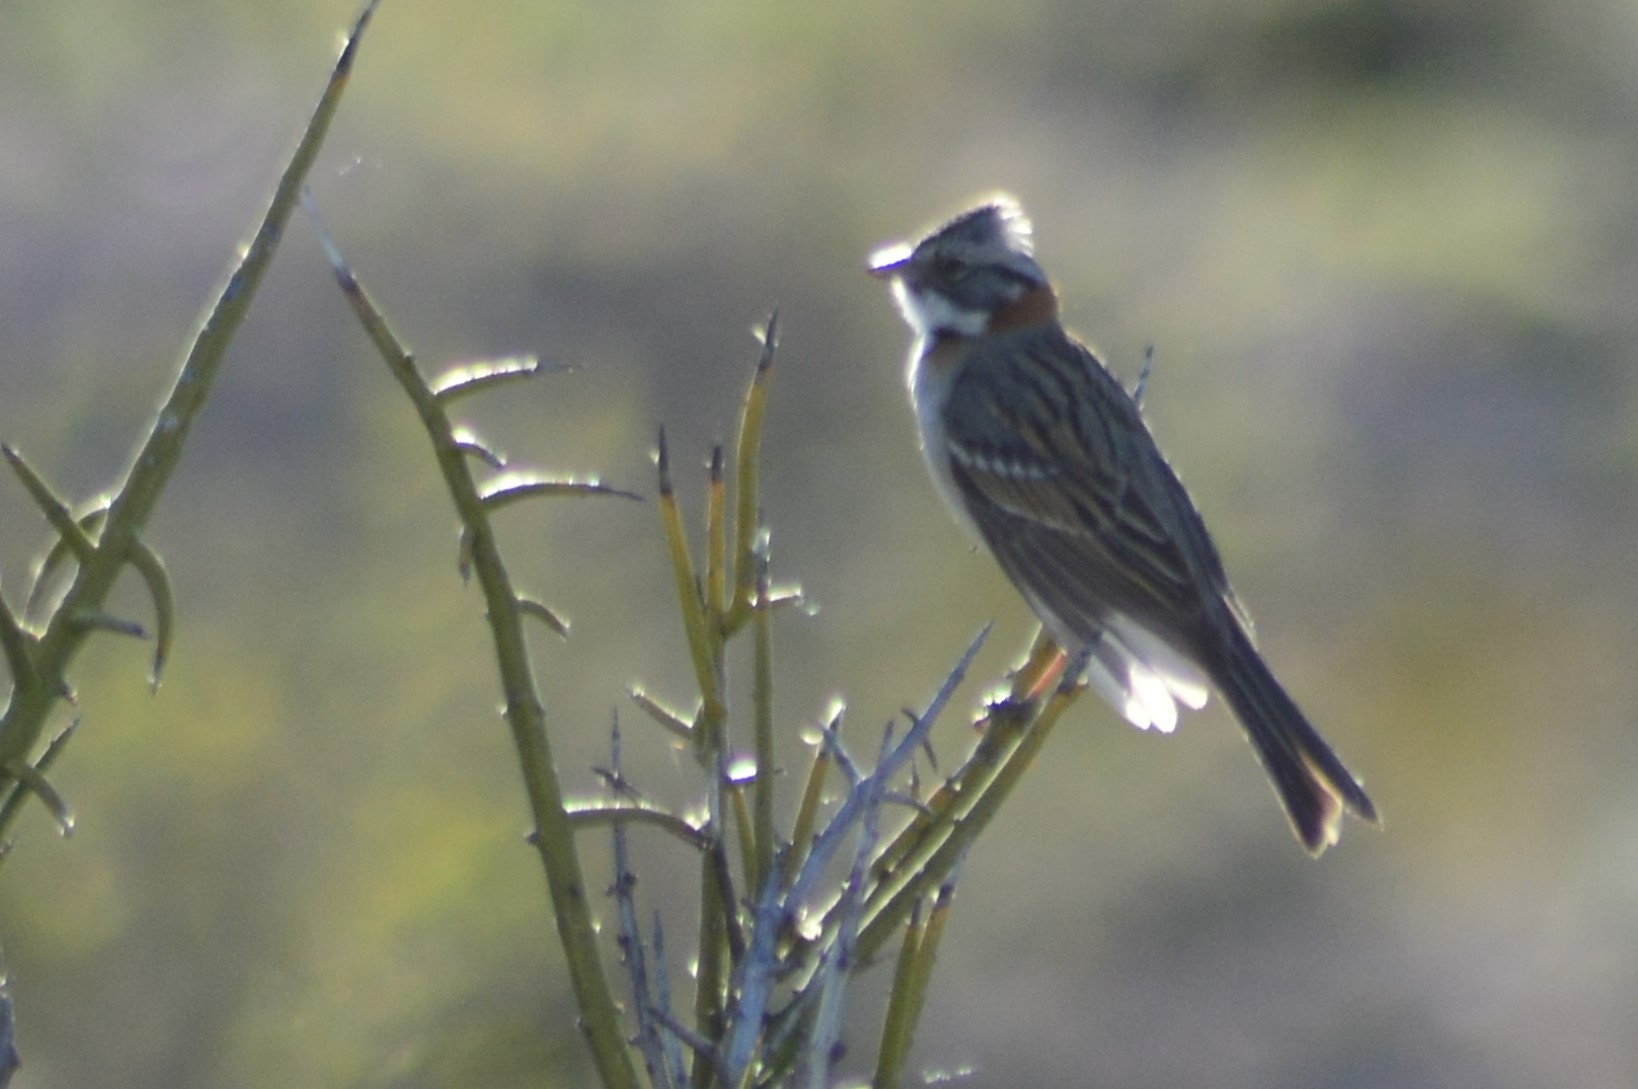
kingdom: Animalia
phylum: Chordata
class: Aves
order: Passeriformes
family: Passerellidae
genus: Zonotrichia
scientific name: Zonotrichia capensis
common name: Rufous-collared sparrow
